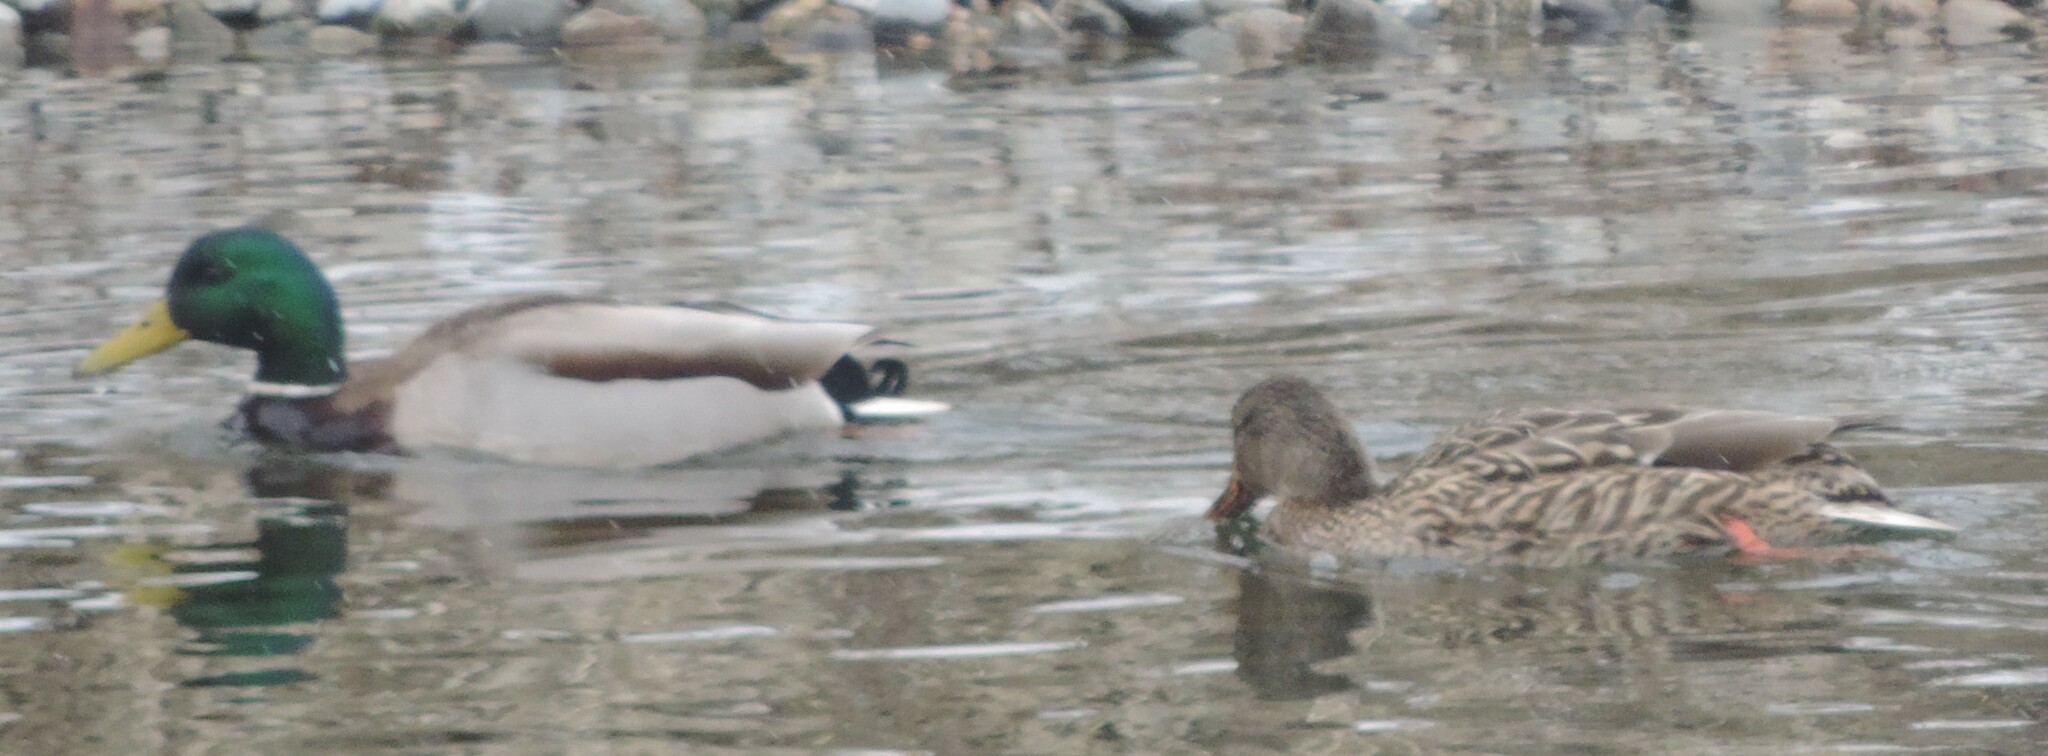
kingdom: Animalia
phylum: Chordata
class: Aves
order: Anseriformes
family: Anatidae
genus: Anas
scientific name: Anas platyrhynchos
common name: Mallard
